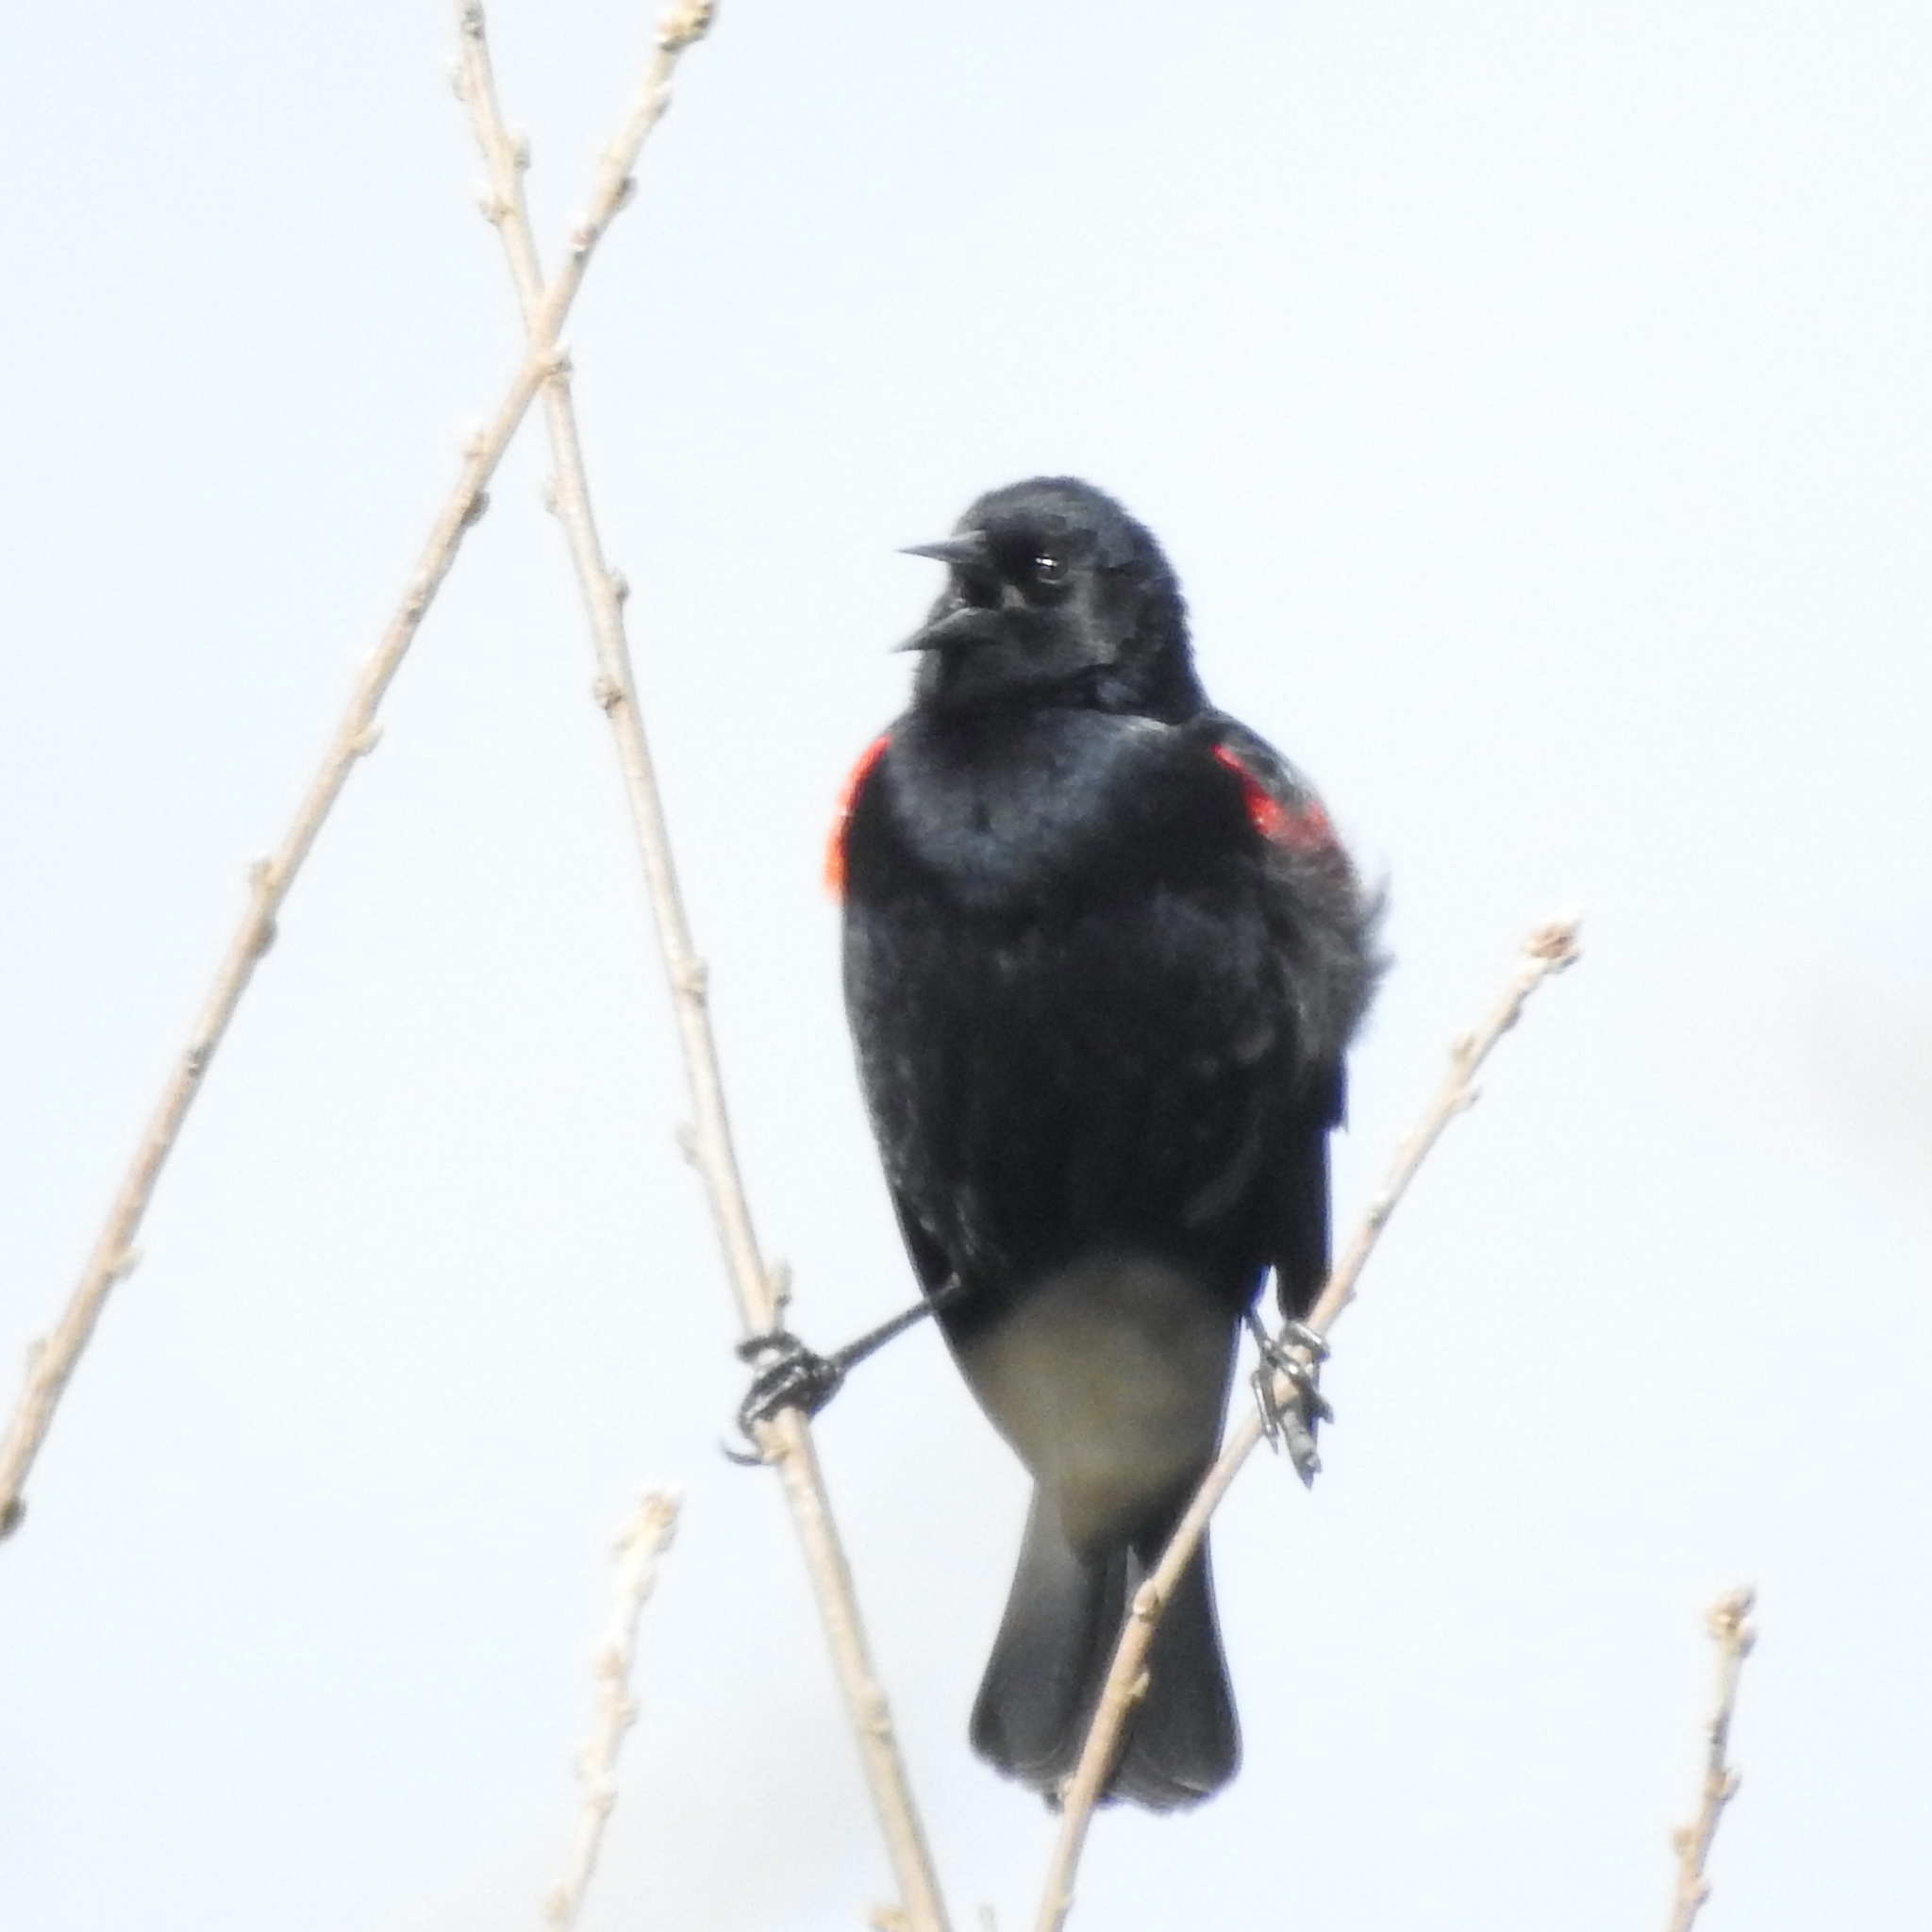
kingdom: Animalia
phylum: Chordata
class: Aves
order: Passeriformes
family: Icteridae
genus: Agelaius
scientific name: Agelaius phoeniceus
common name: Red-winged blackbird
